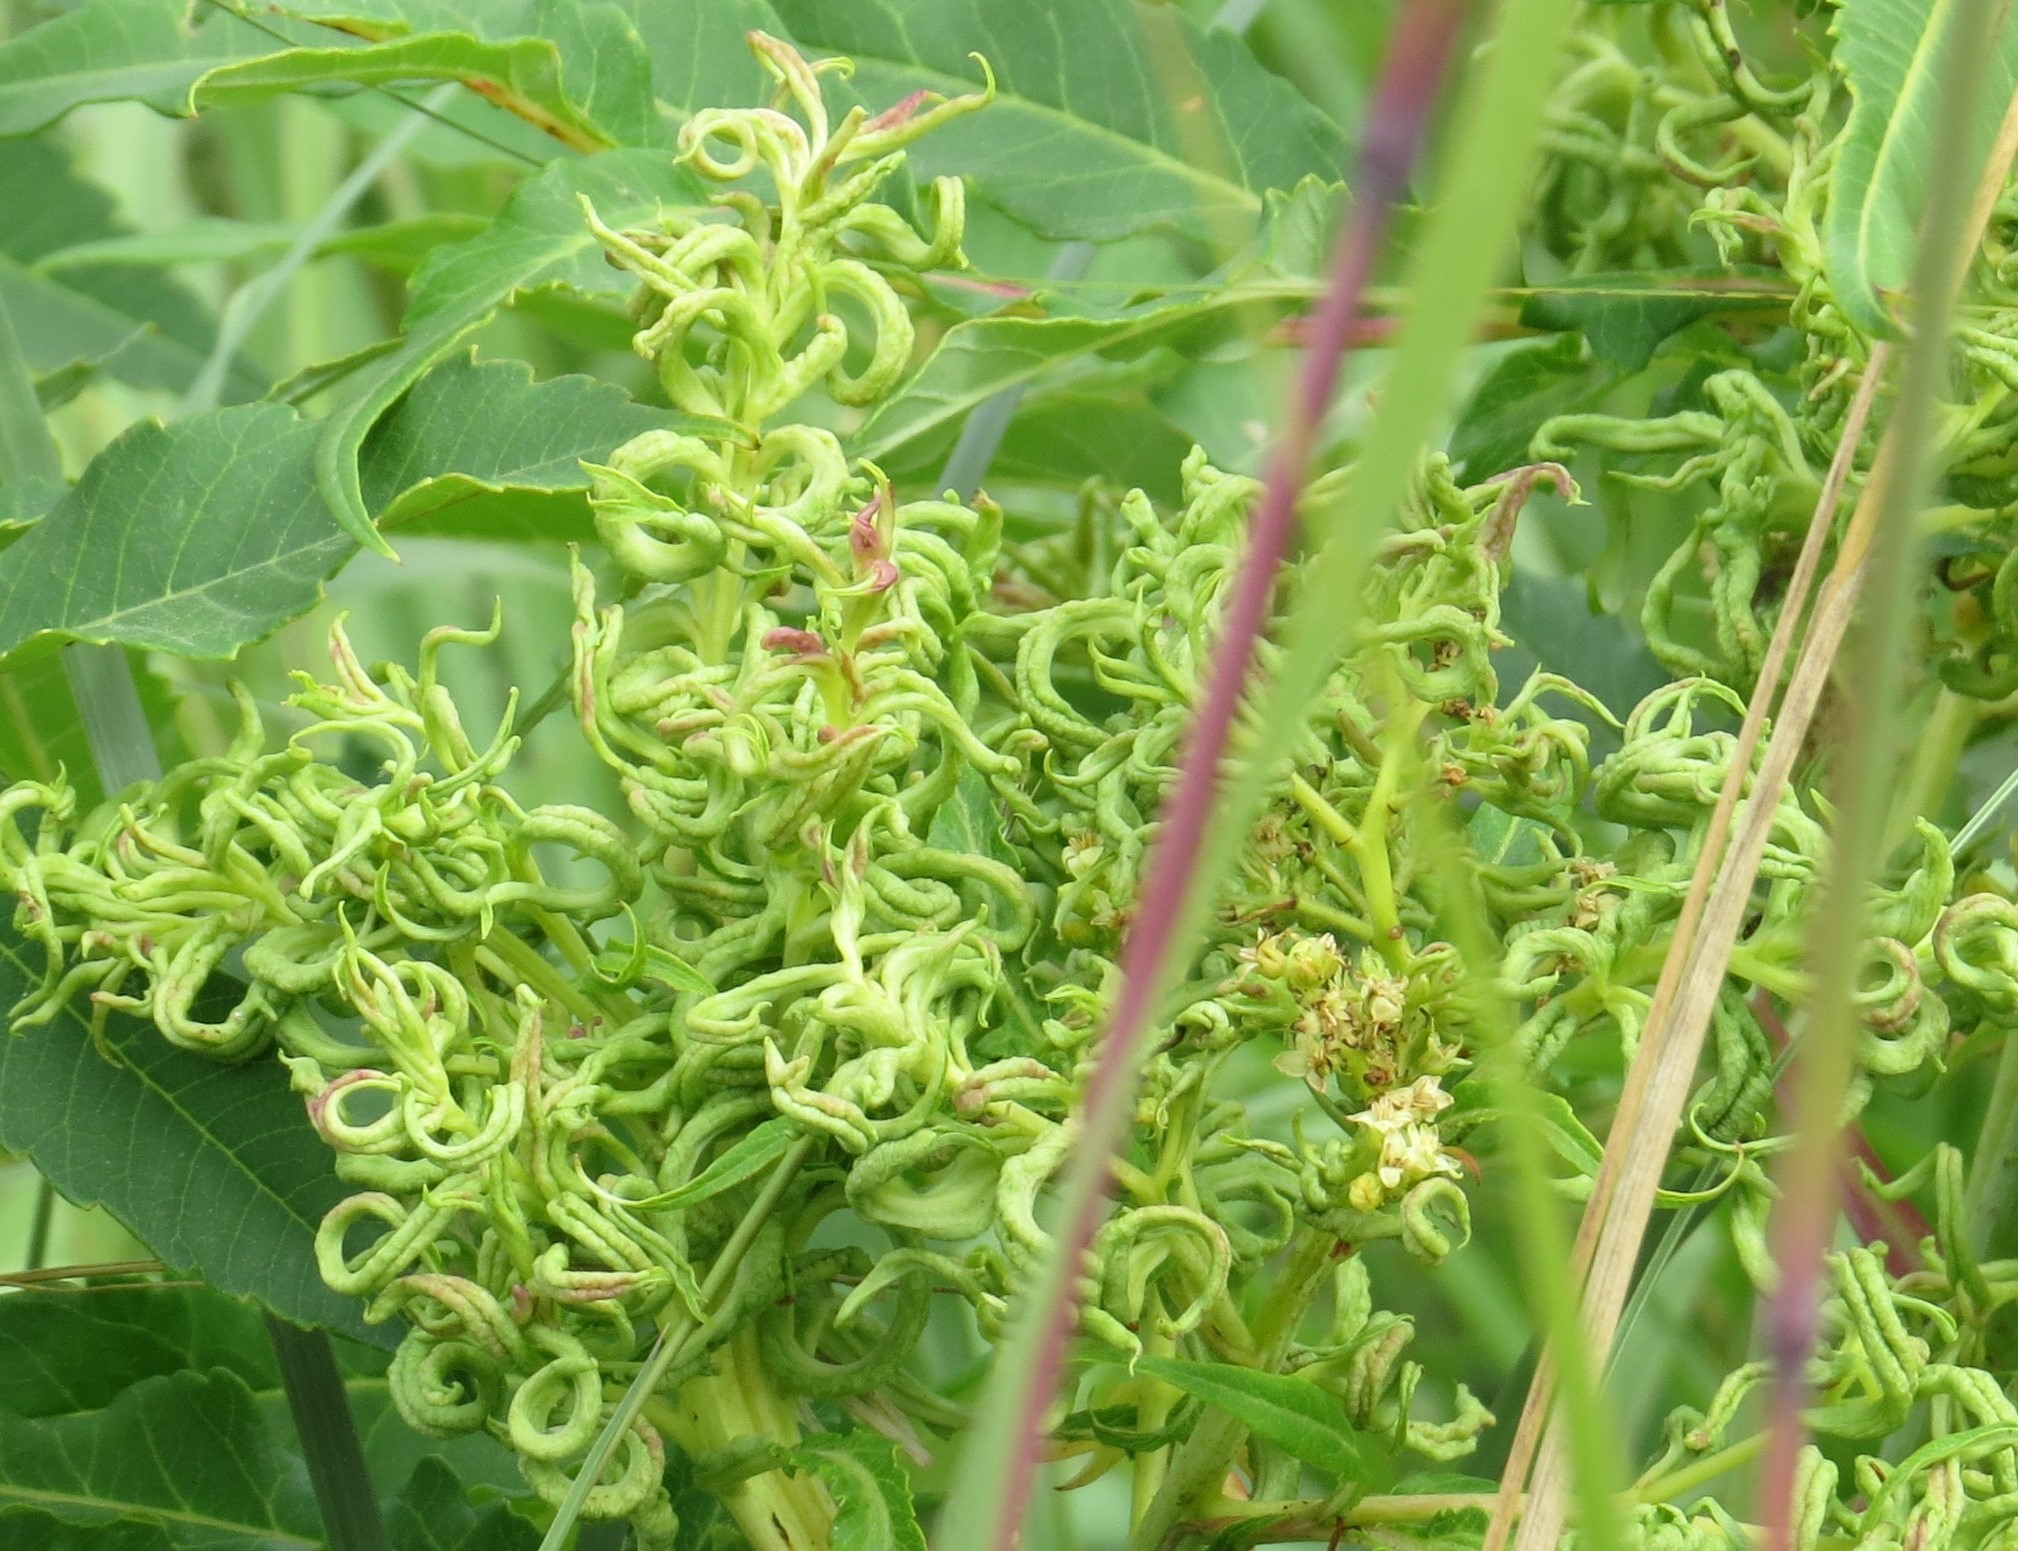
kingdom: Animalia
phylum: Arthropoda
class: Arachnida
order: Trombidiformes
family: Eriophyidae
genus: Eriophyes
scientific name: Eriophyes
